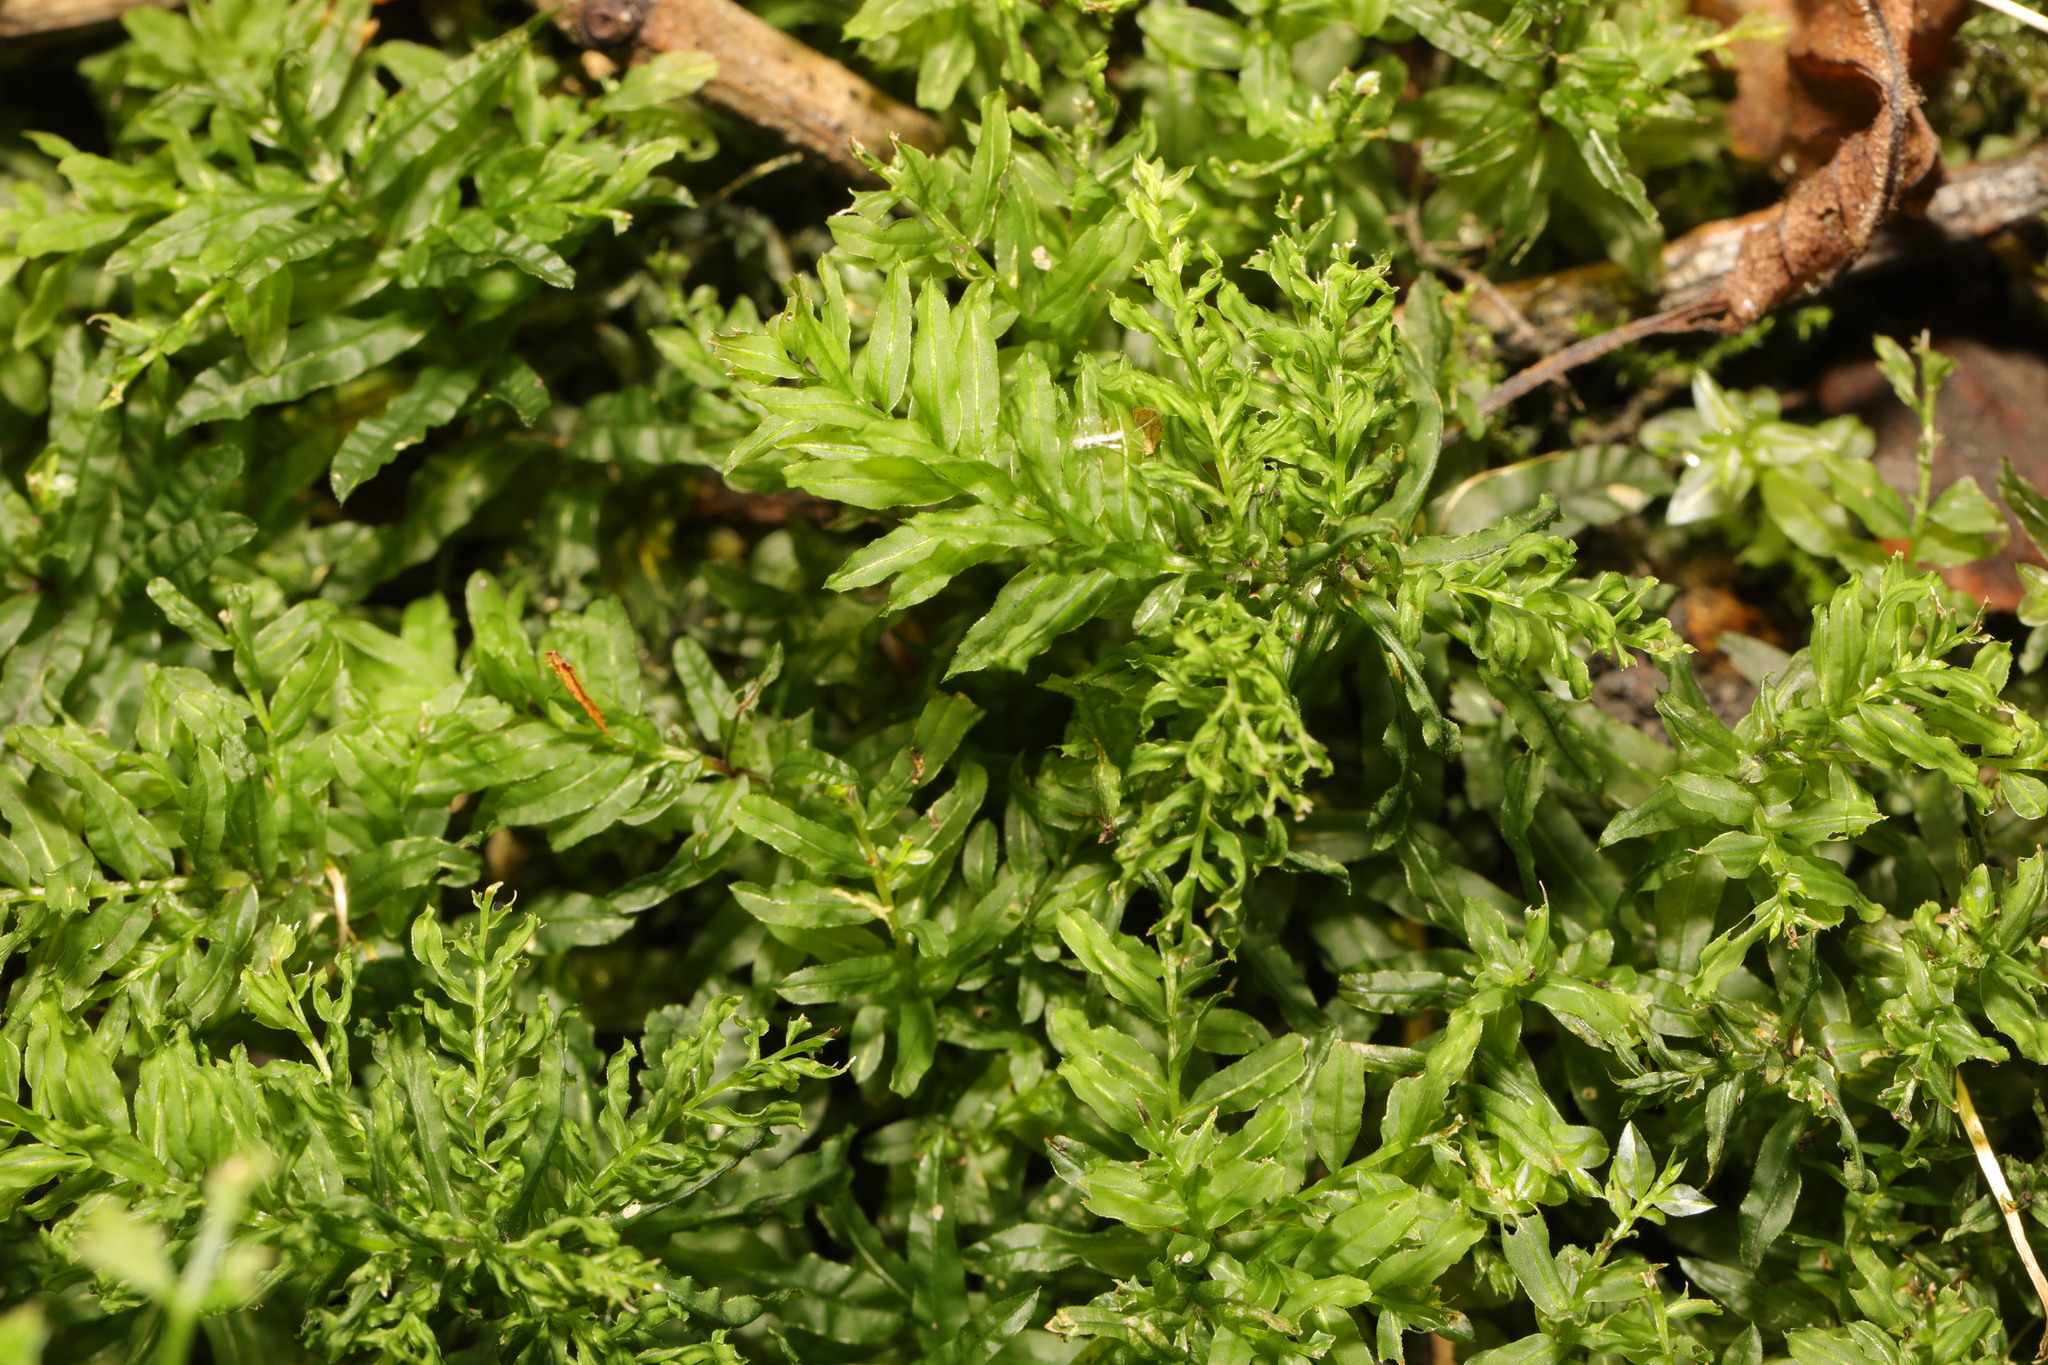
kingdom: Plantae
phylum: Bryophyta
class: Bryopsida
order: Bryales
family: Mniaceae
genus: Plagiomnium
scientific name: Plagiomnium undulatum
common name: Hart's-tongue thyme-moss
